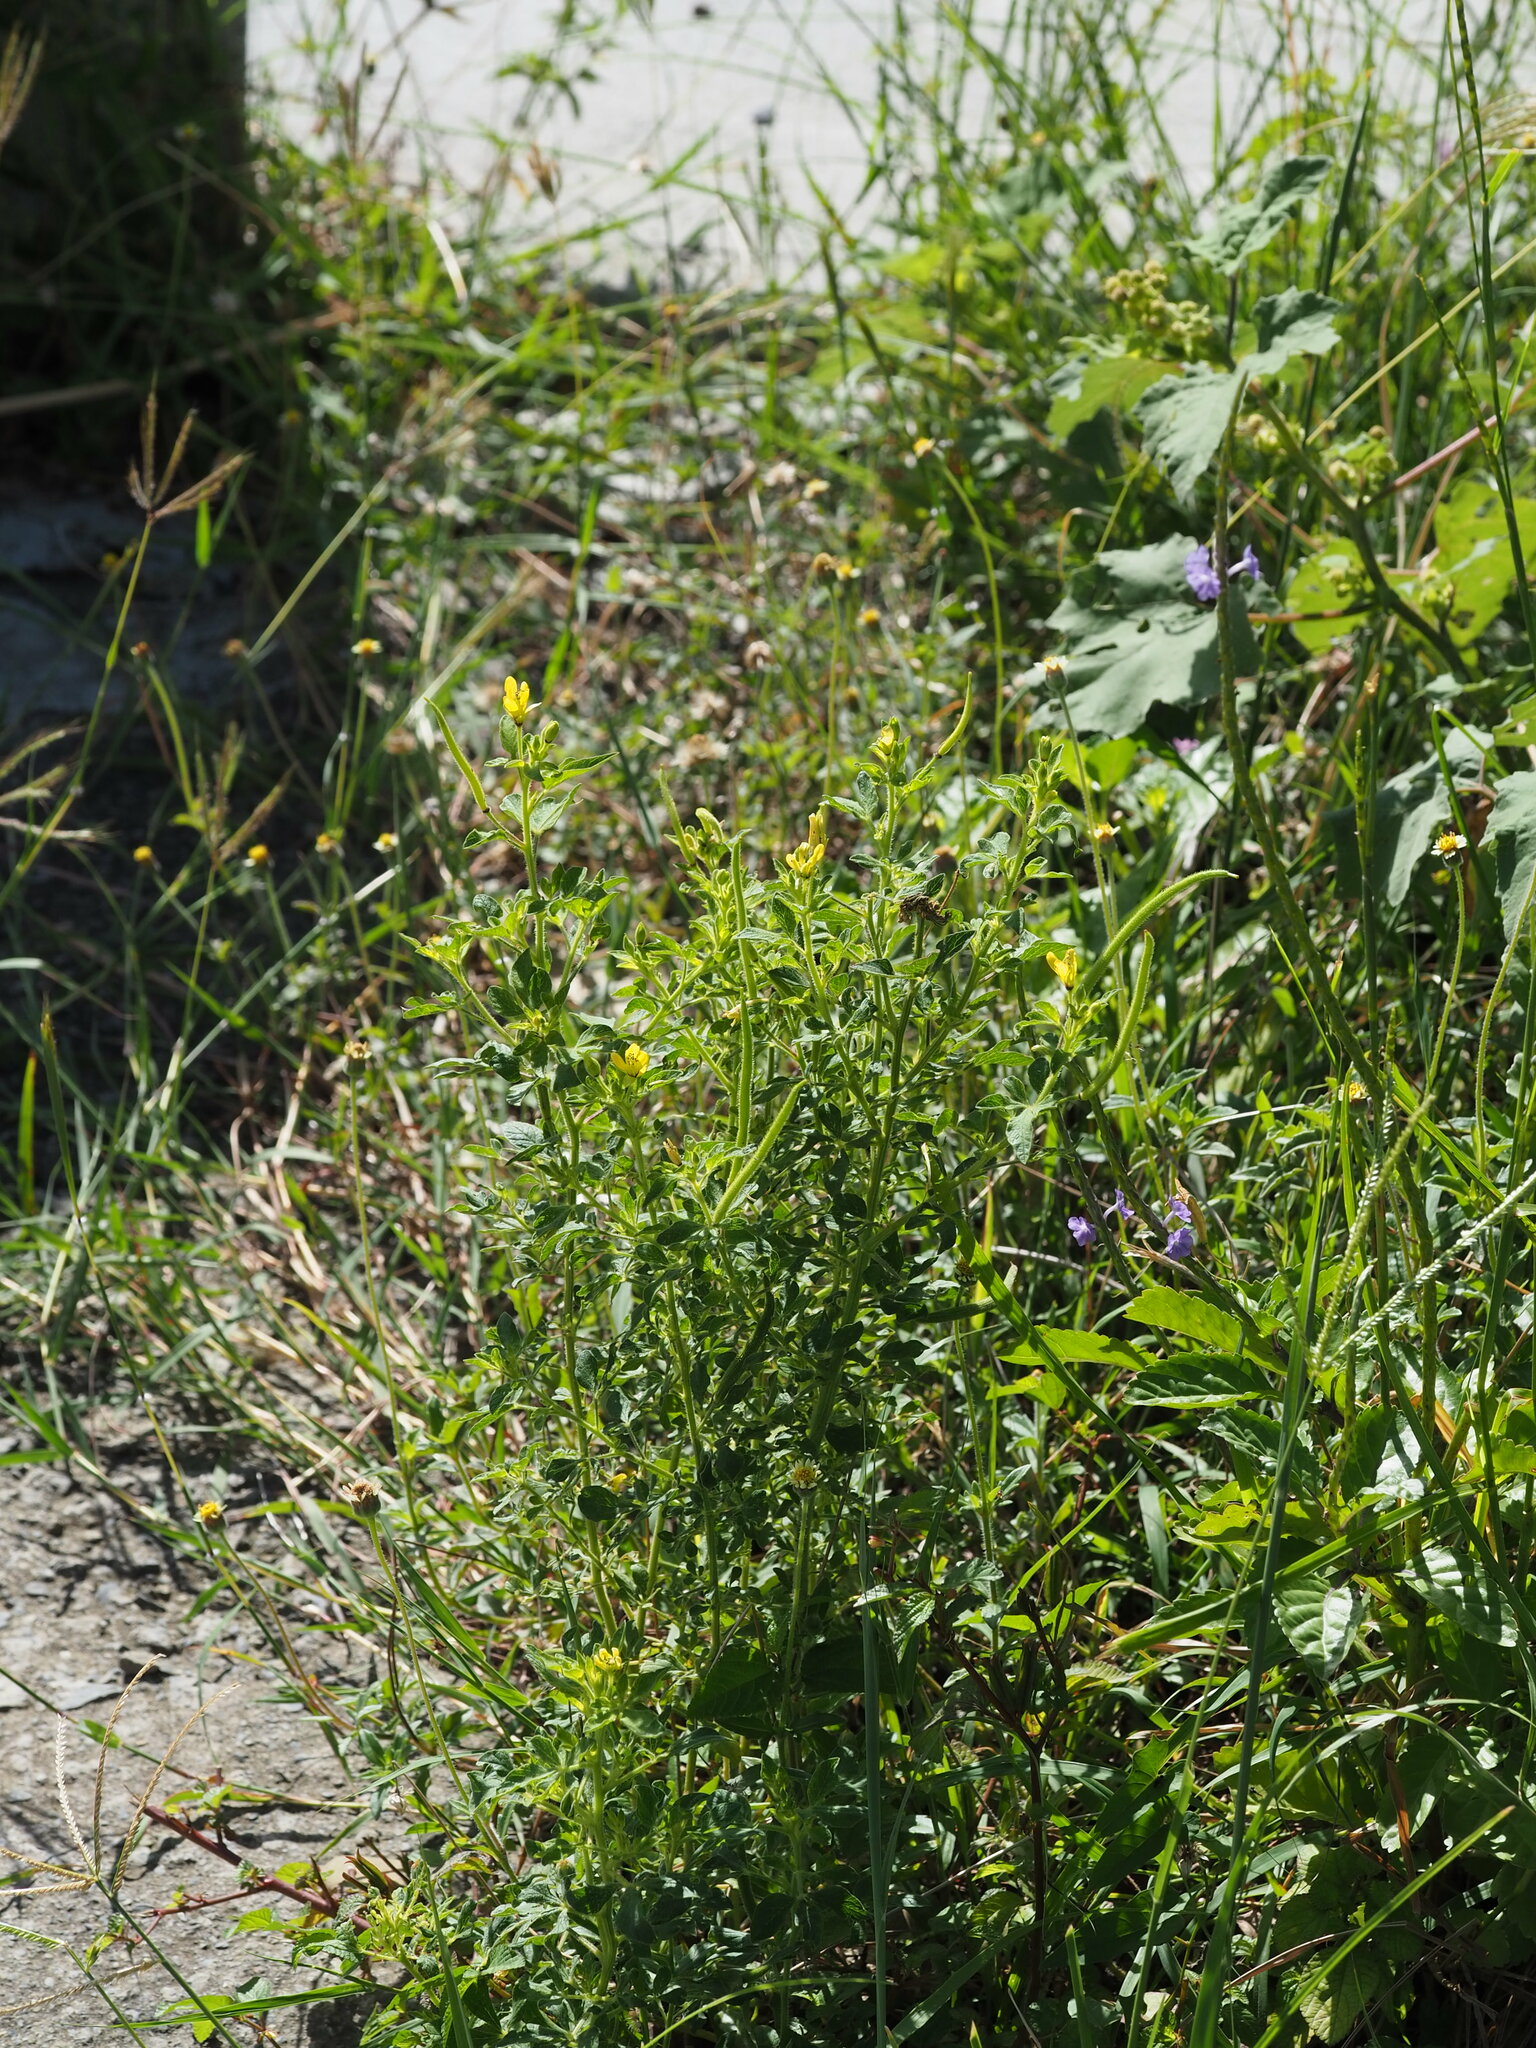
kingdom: Plantae
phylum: Tracheophyta
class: Magnoliopsida
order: Brassicales
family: Cleomaceae
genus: Arivela
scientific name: Arivela viscosa
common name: Asian spiderflower
